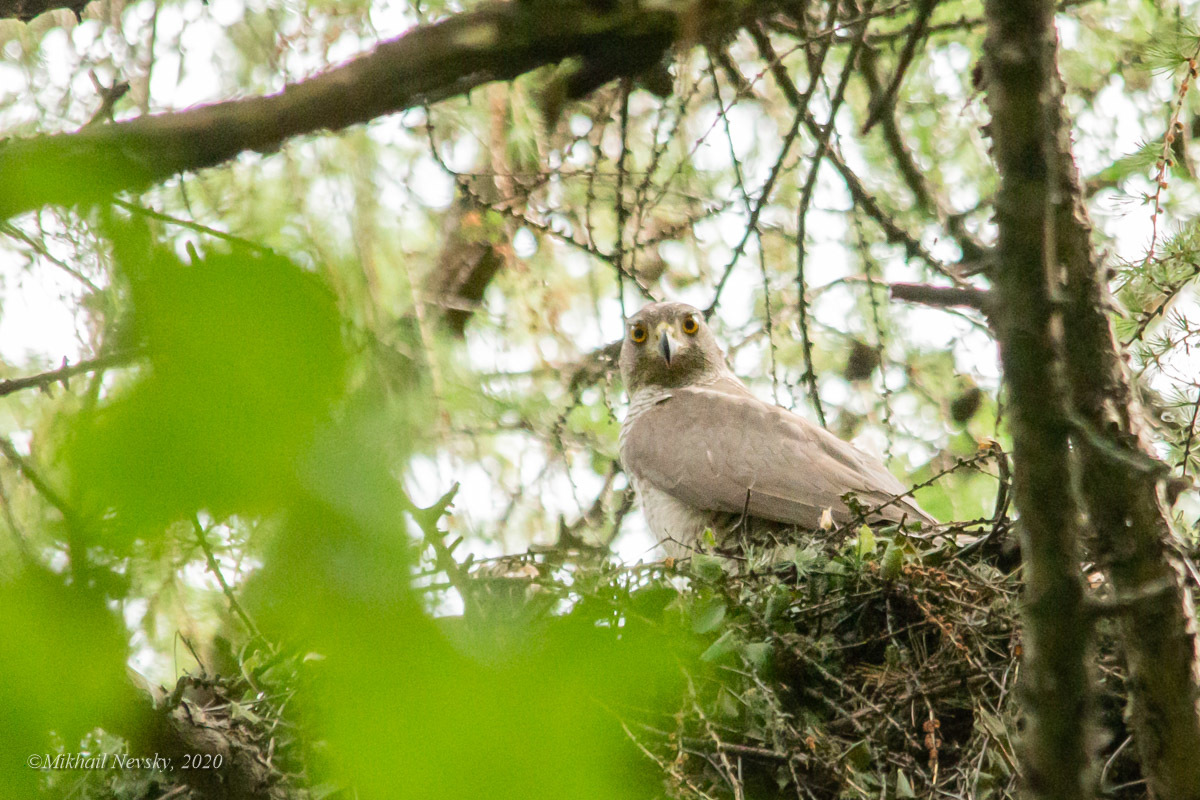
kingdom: Animalia
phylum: Chordata
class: Aves
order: Accipitriformes
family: Accipitridae
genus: Accipiter
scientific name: Accipiter gentilis
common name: Northern goshawk
